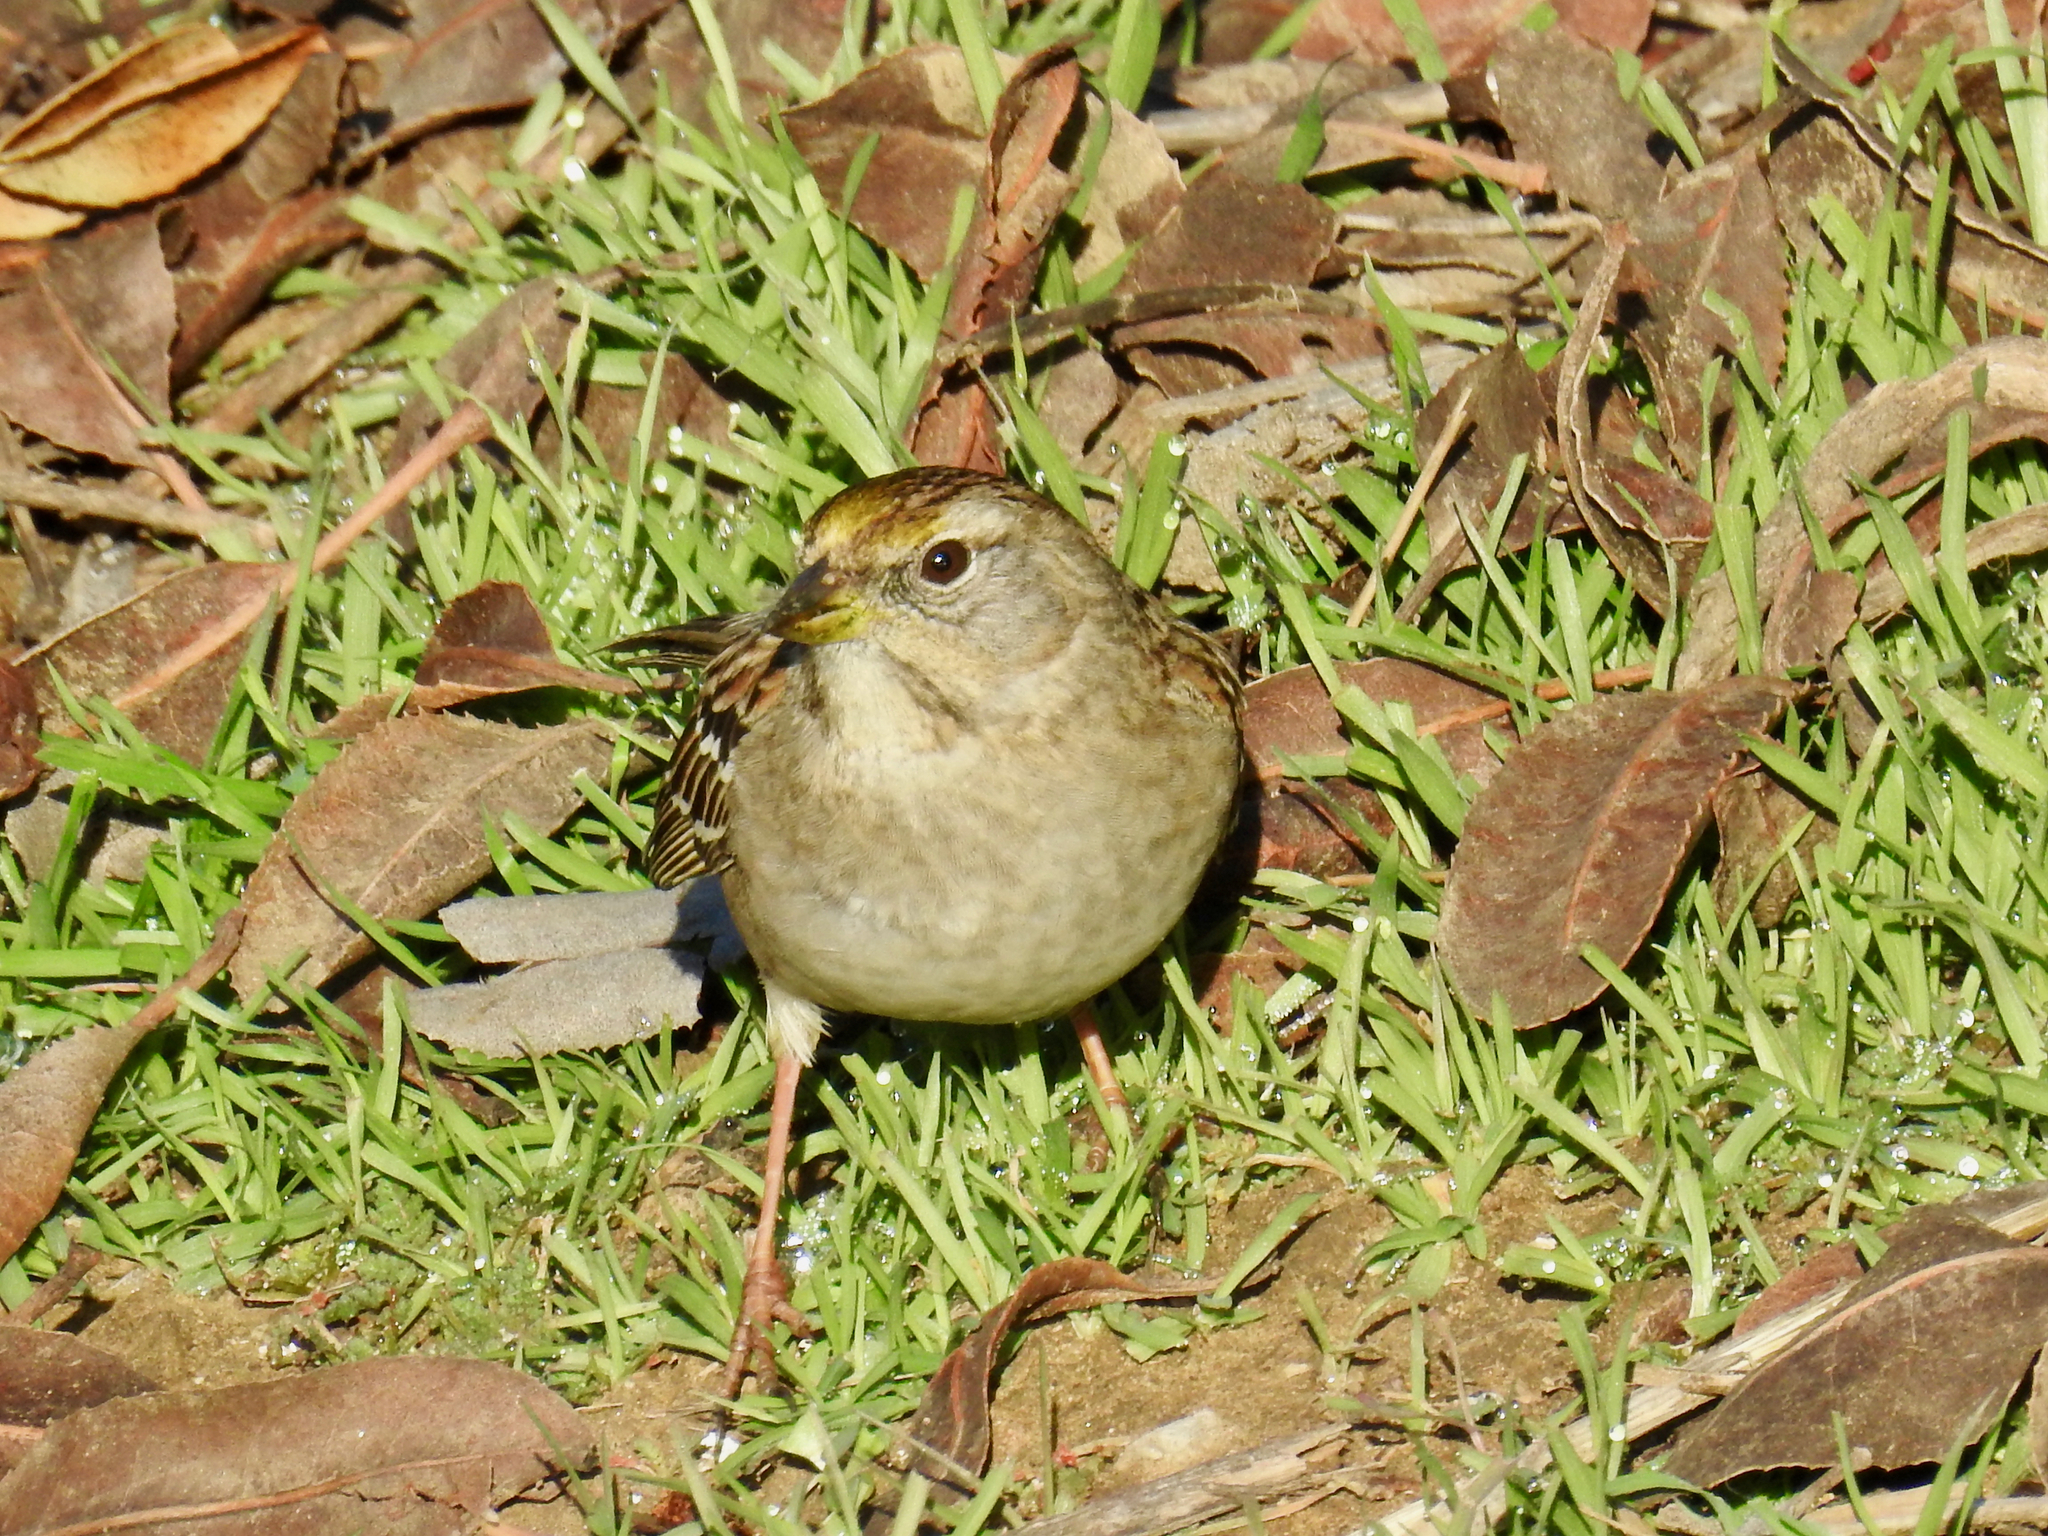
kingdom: Animalia
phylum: Chordata
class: Aves
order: Passeriformes
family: Passerellidae
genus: Zonotrichia
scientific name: Zonotrichia atricapilla
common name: Golden-crowned sparrow
